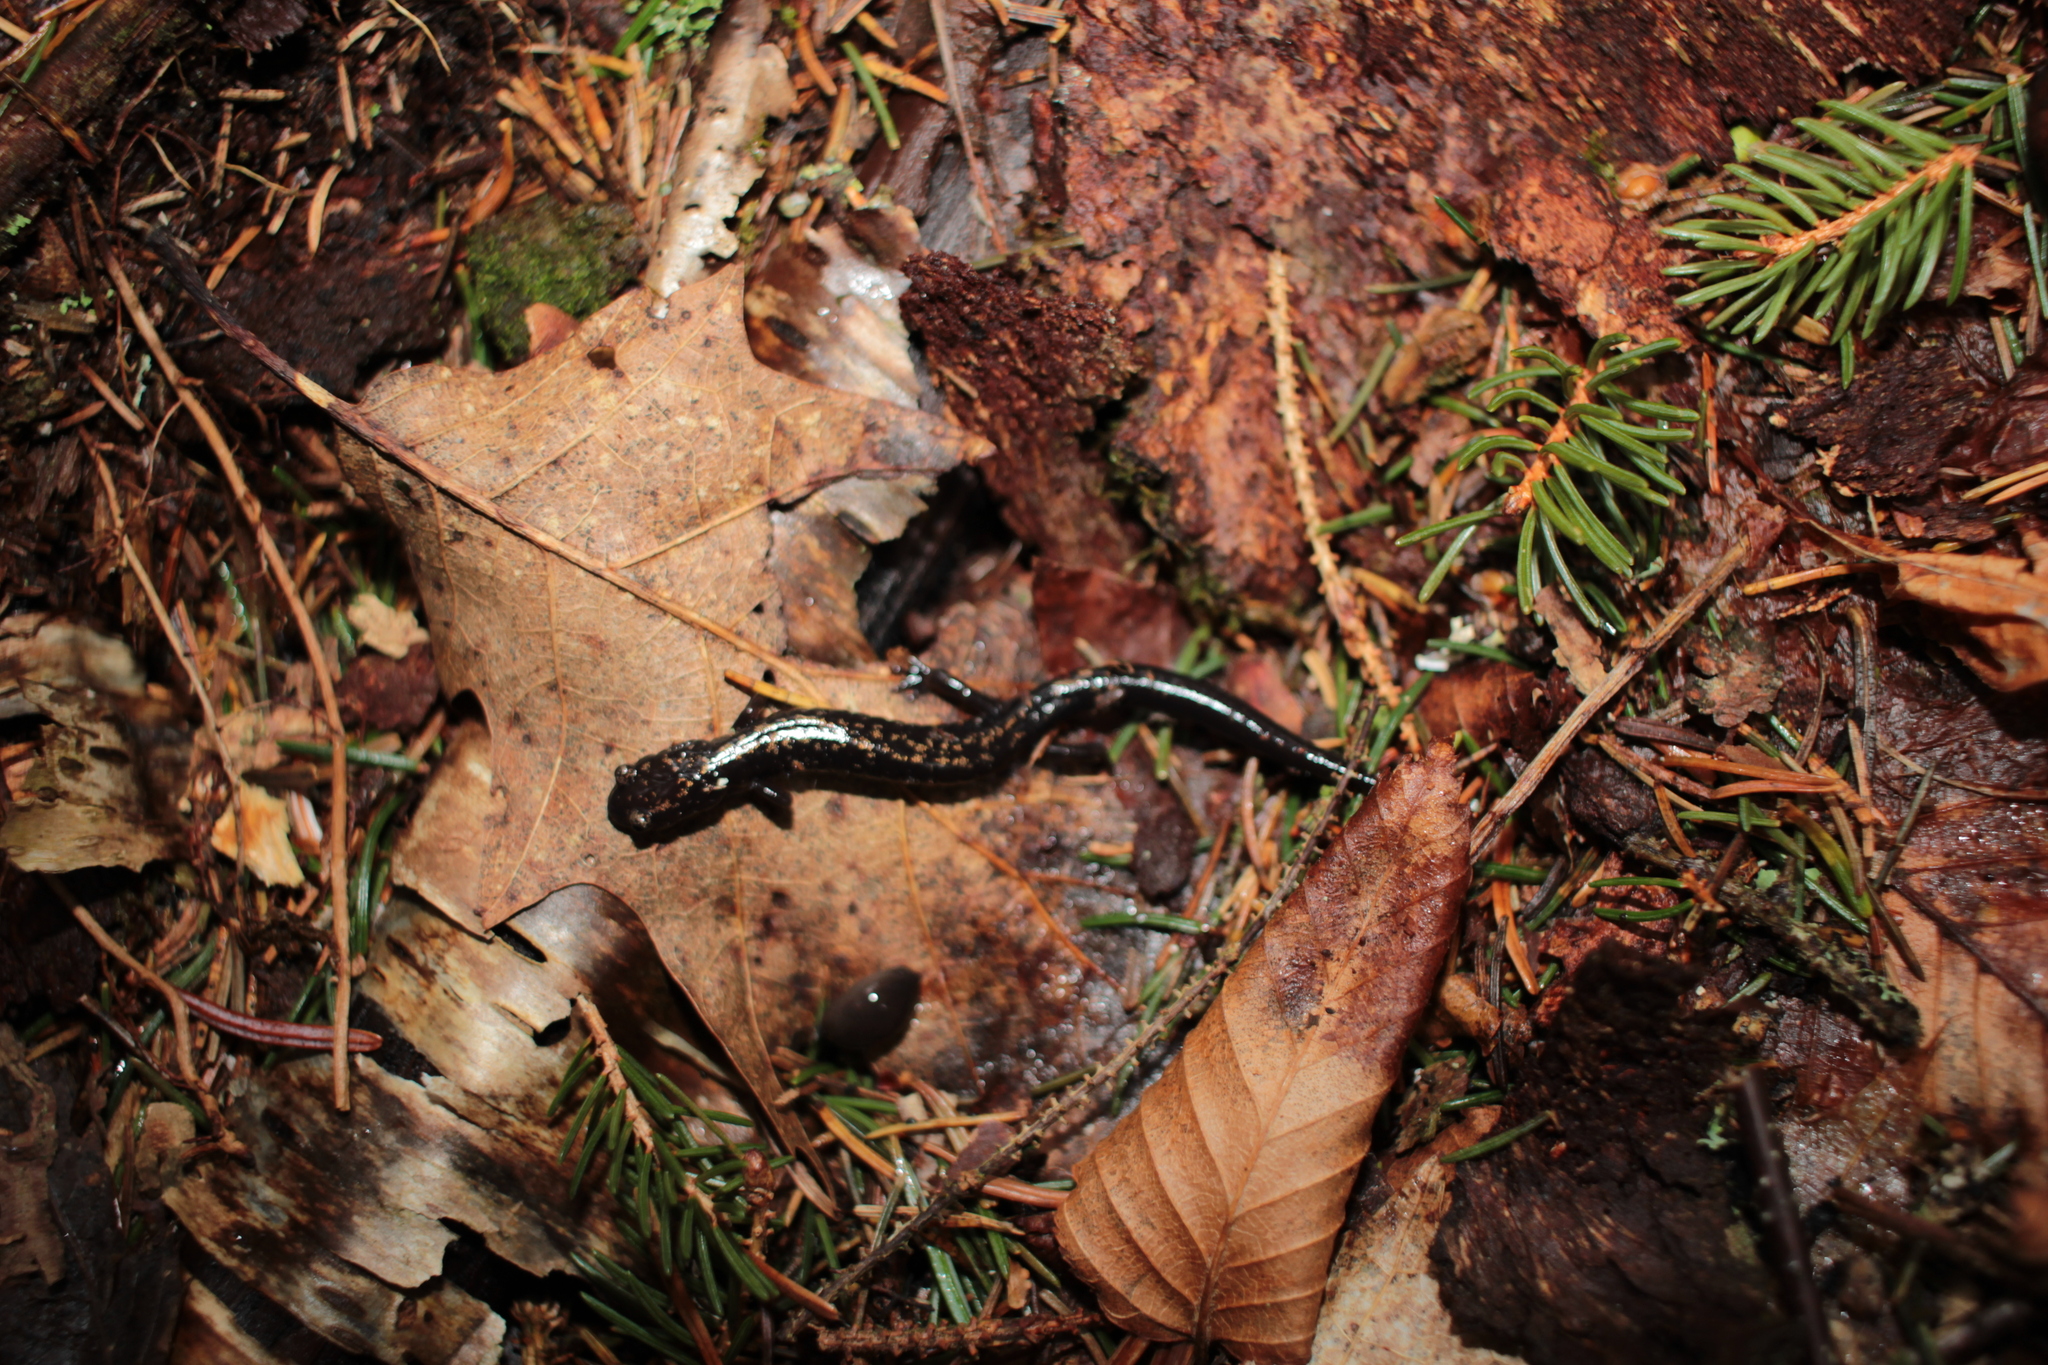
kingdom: Animalia
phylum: Chordata
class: Amphibia
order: Caudata
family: Plethodontidae
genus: Plethodon
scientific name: Plethodon welleri
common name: Weller's salamander
